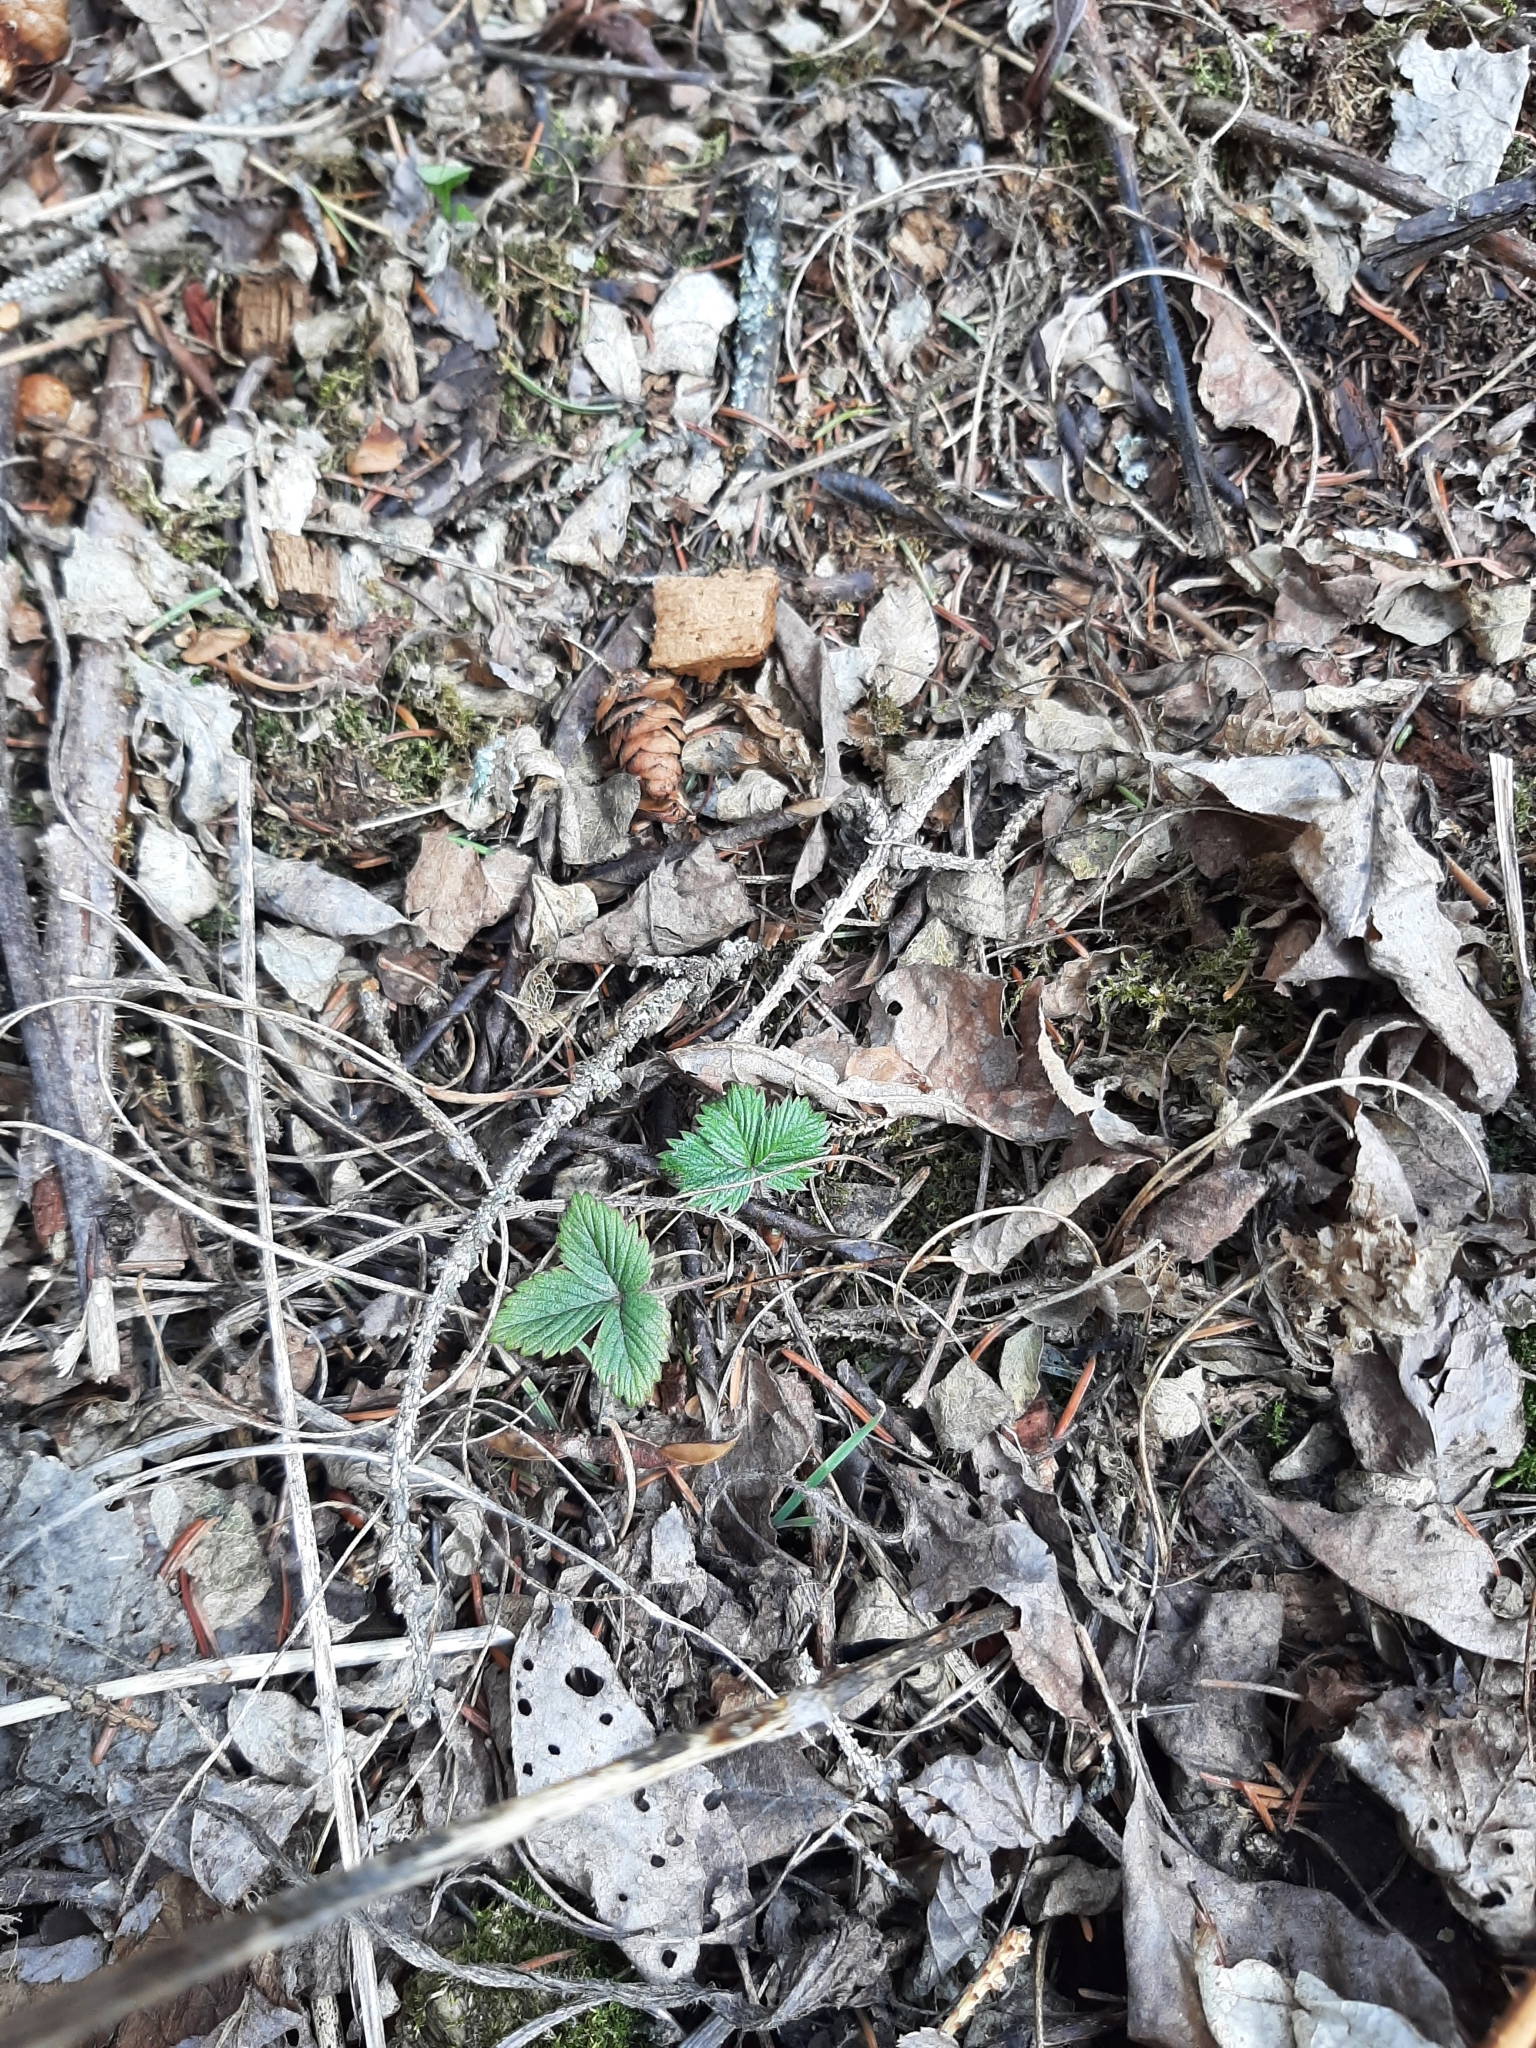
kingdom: Plantae
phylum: Tracheophyta
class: Magnoliopsida
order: Rosales
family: Rosaceae
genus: Fragaria
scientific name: Fragaria vesca
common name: Wild strawberry
